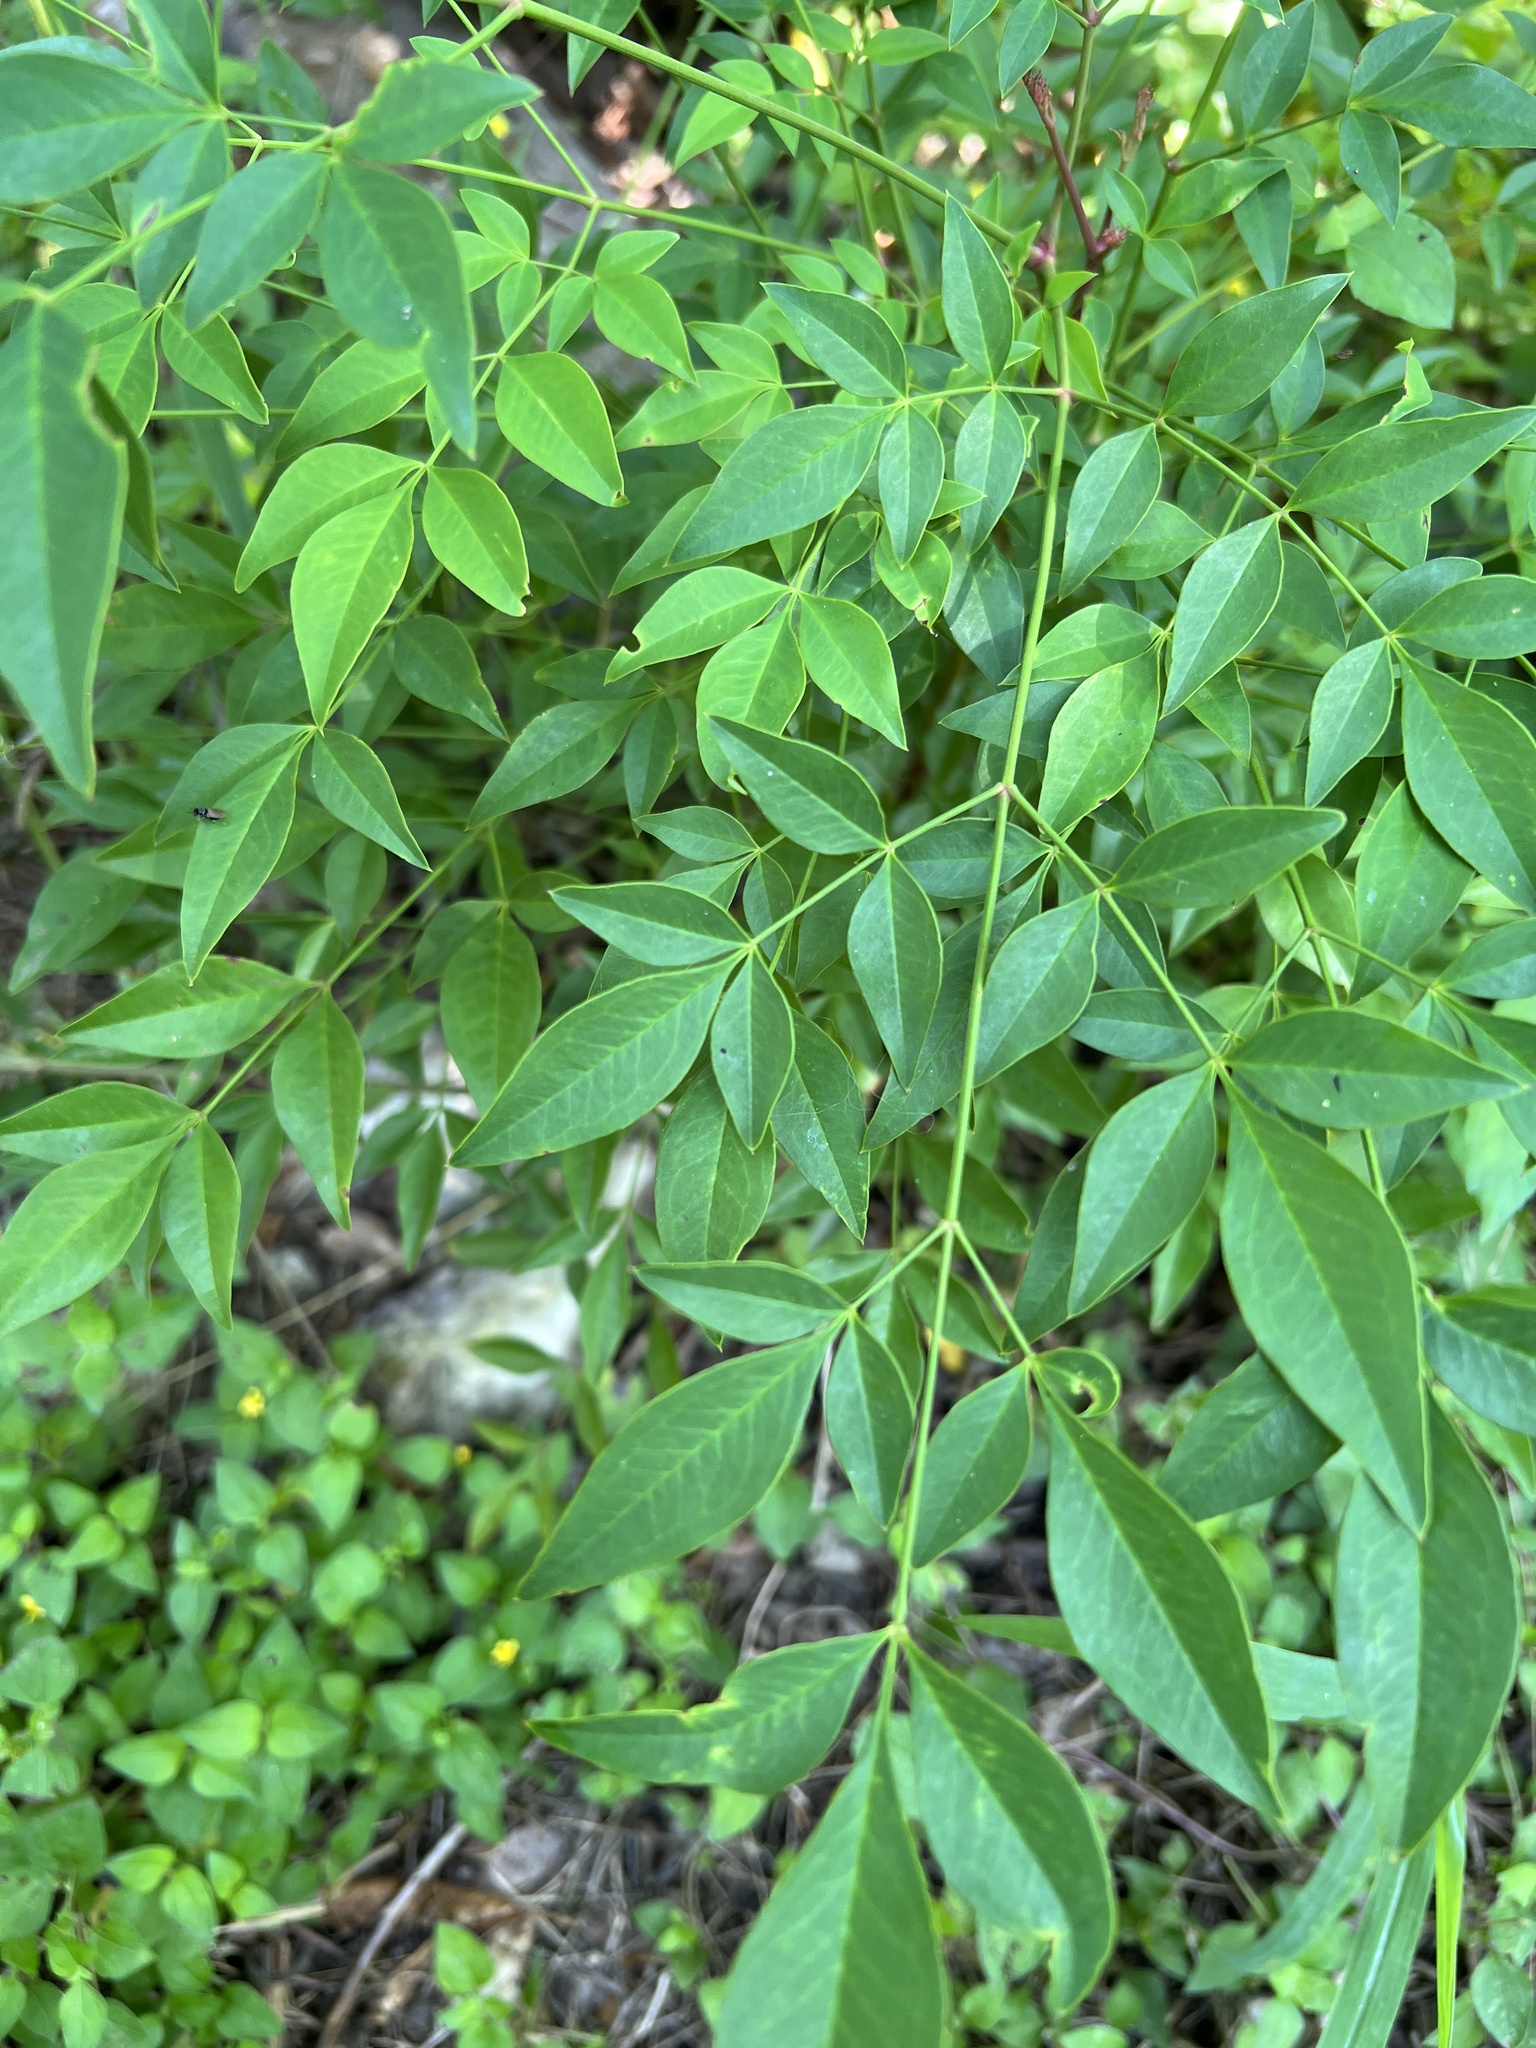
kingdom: Plantae
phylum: Tracheophyta
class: Magnoliopsida
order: Ranunculales
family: Berberidaceae
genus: Nandina
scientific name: Nandina domestica
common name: Sacred bamboo
